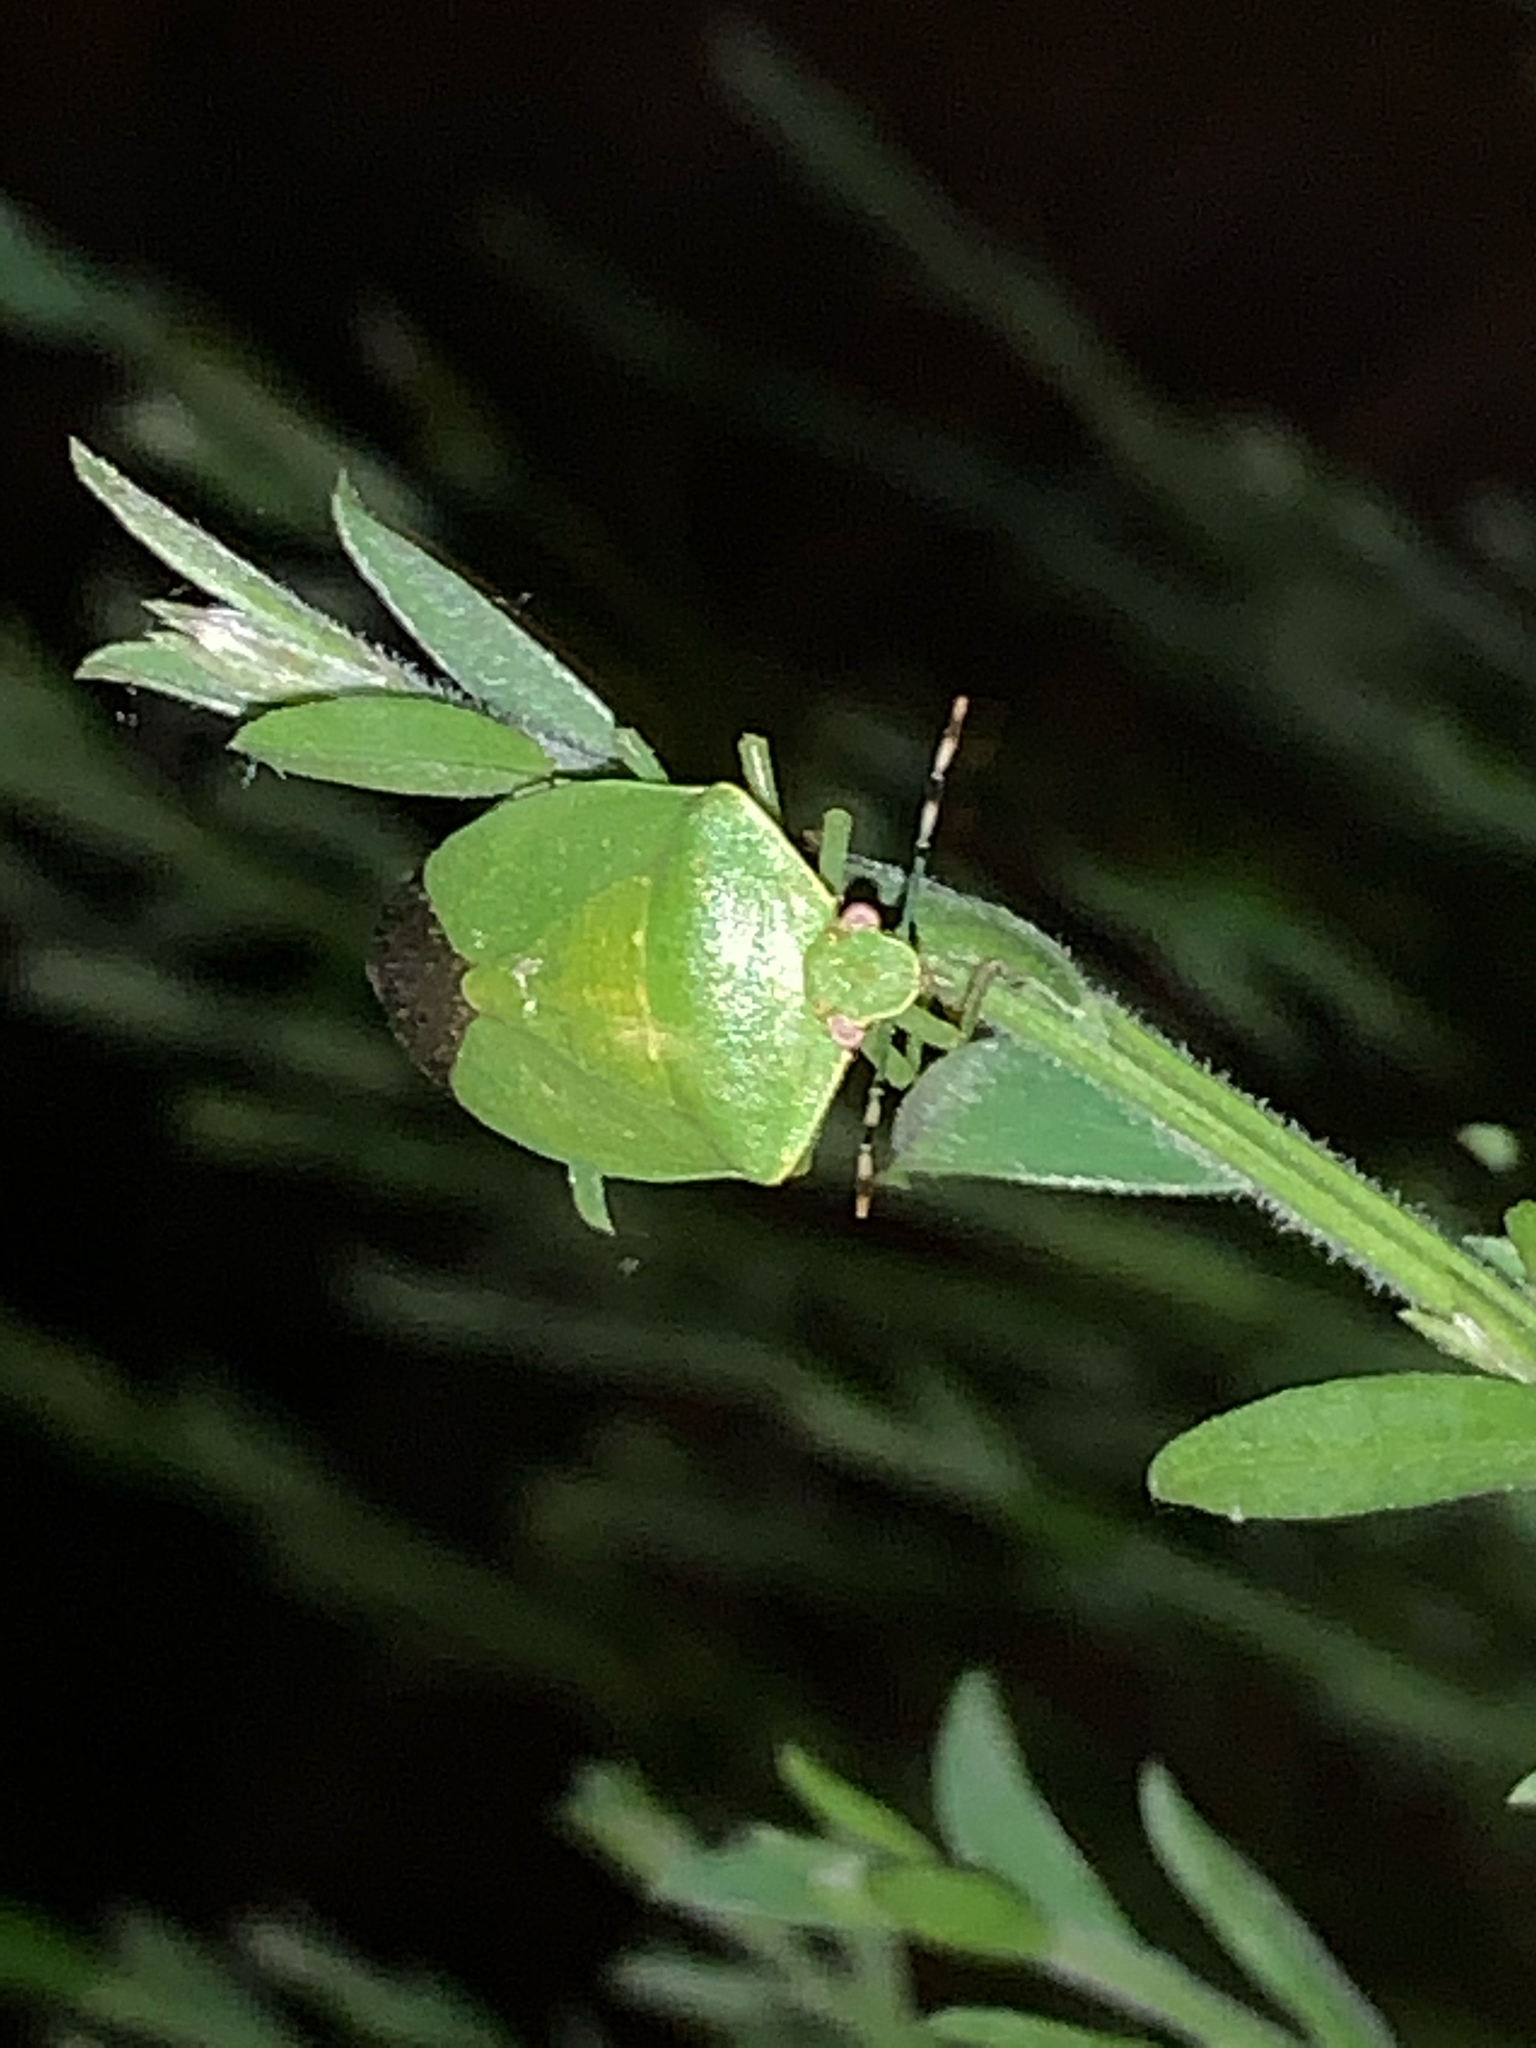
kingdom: Animalia
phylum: Arthropoda
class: Insecta
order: Hemiptera
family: Pentatomidae
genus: Chinavia
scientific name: Chinavia hilaris
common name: Green stink bug
